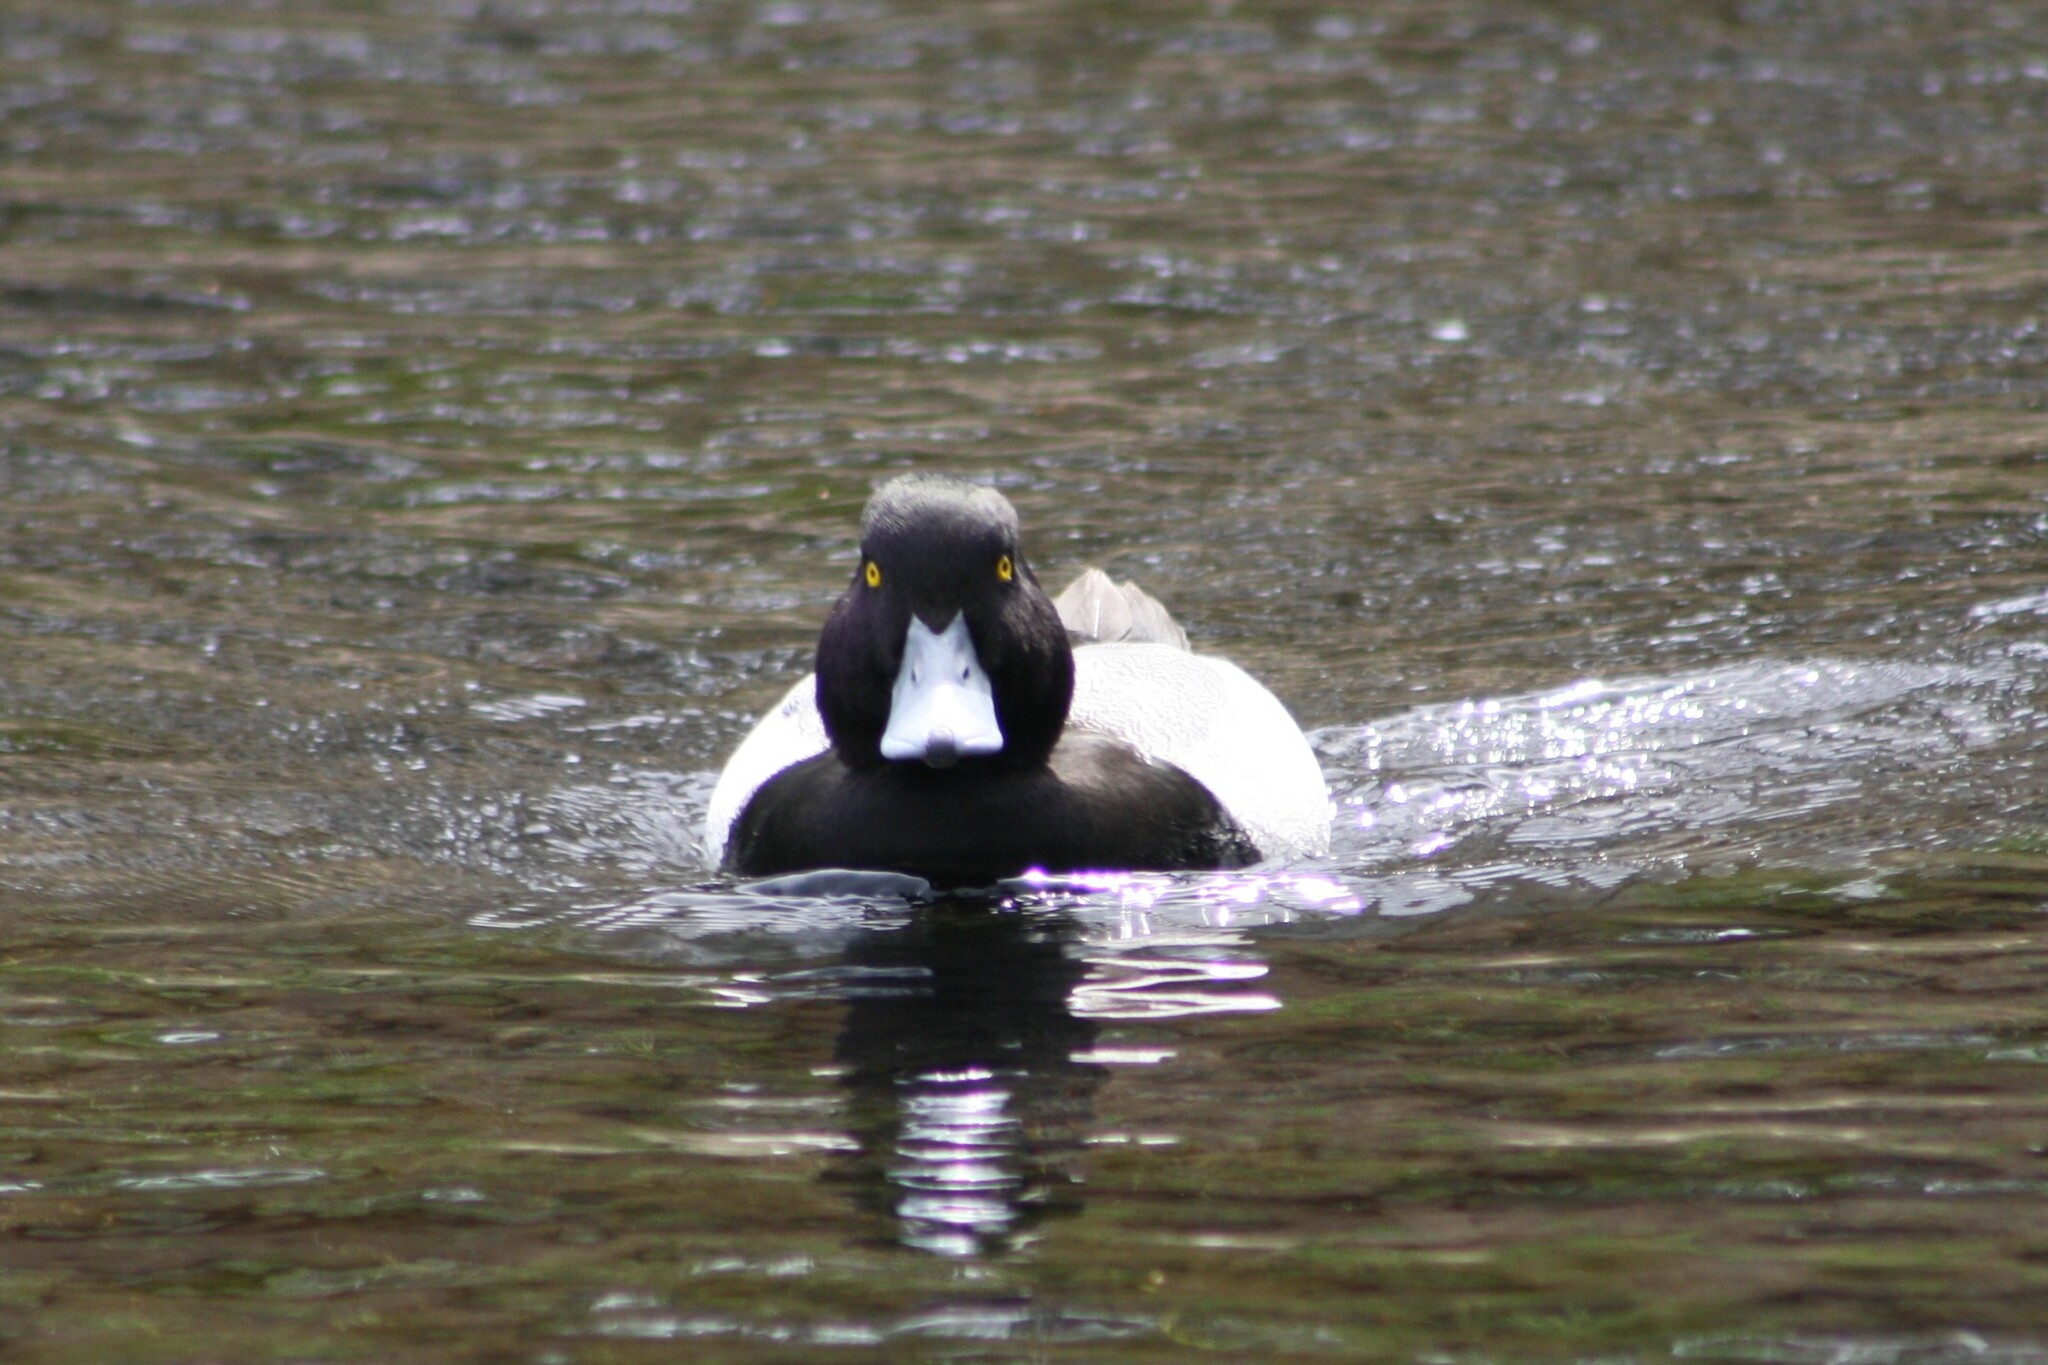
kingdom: Animalia
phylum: Chordata
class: Aves
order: Anseriformes
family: Anatidae
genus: Aythya
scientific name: Aythya affinis
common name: Lesser scaup
